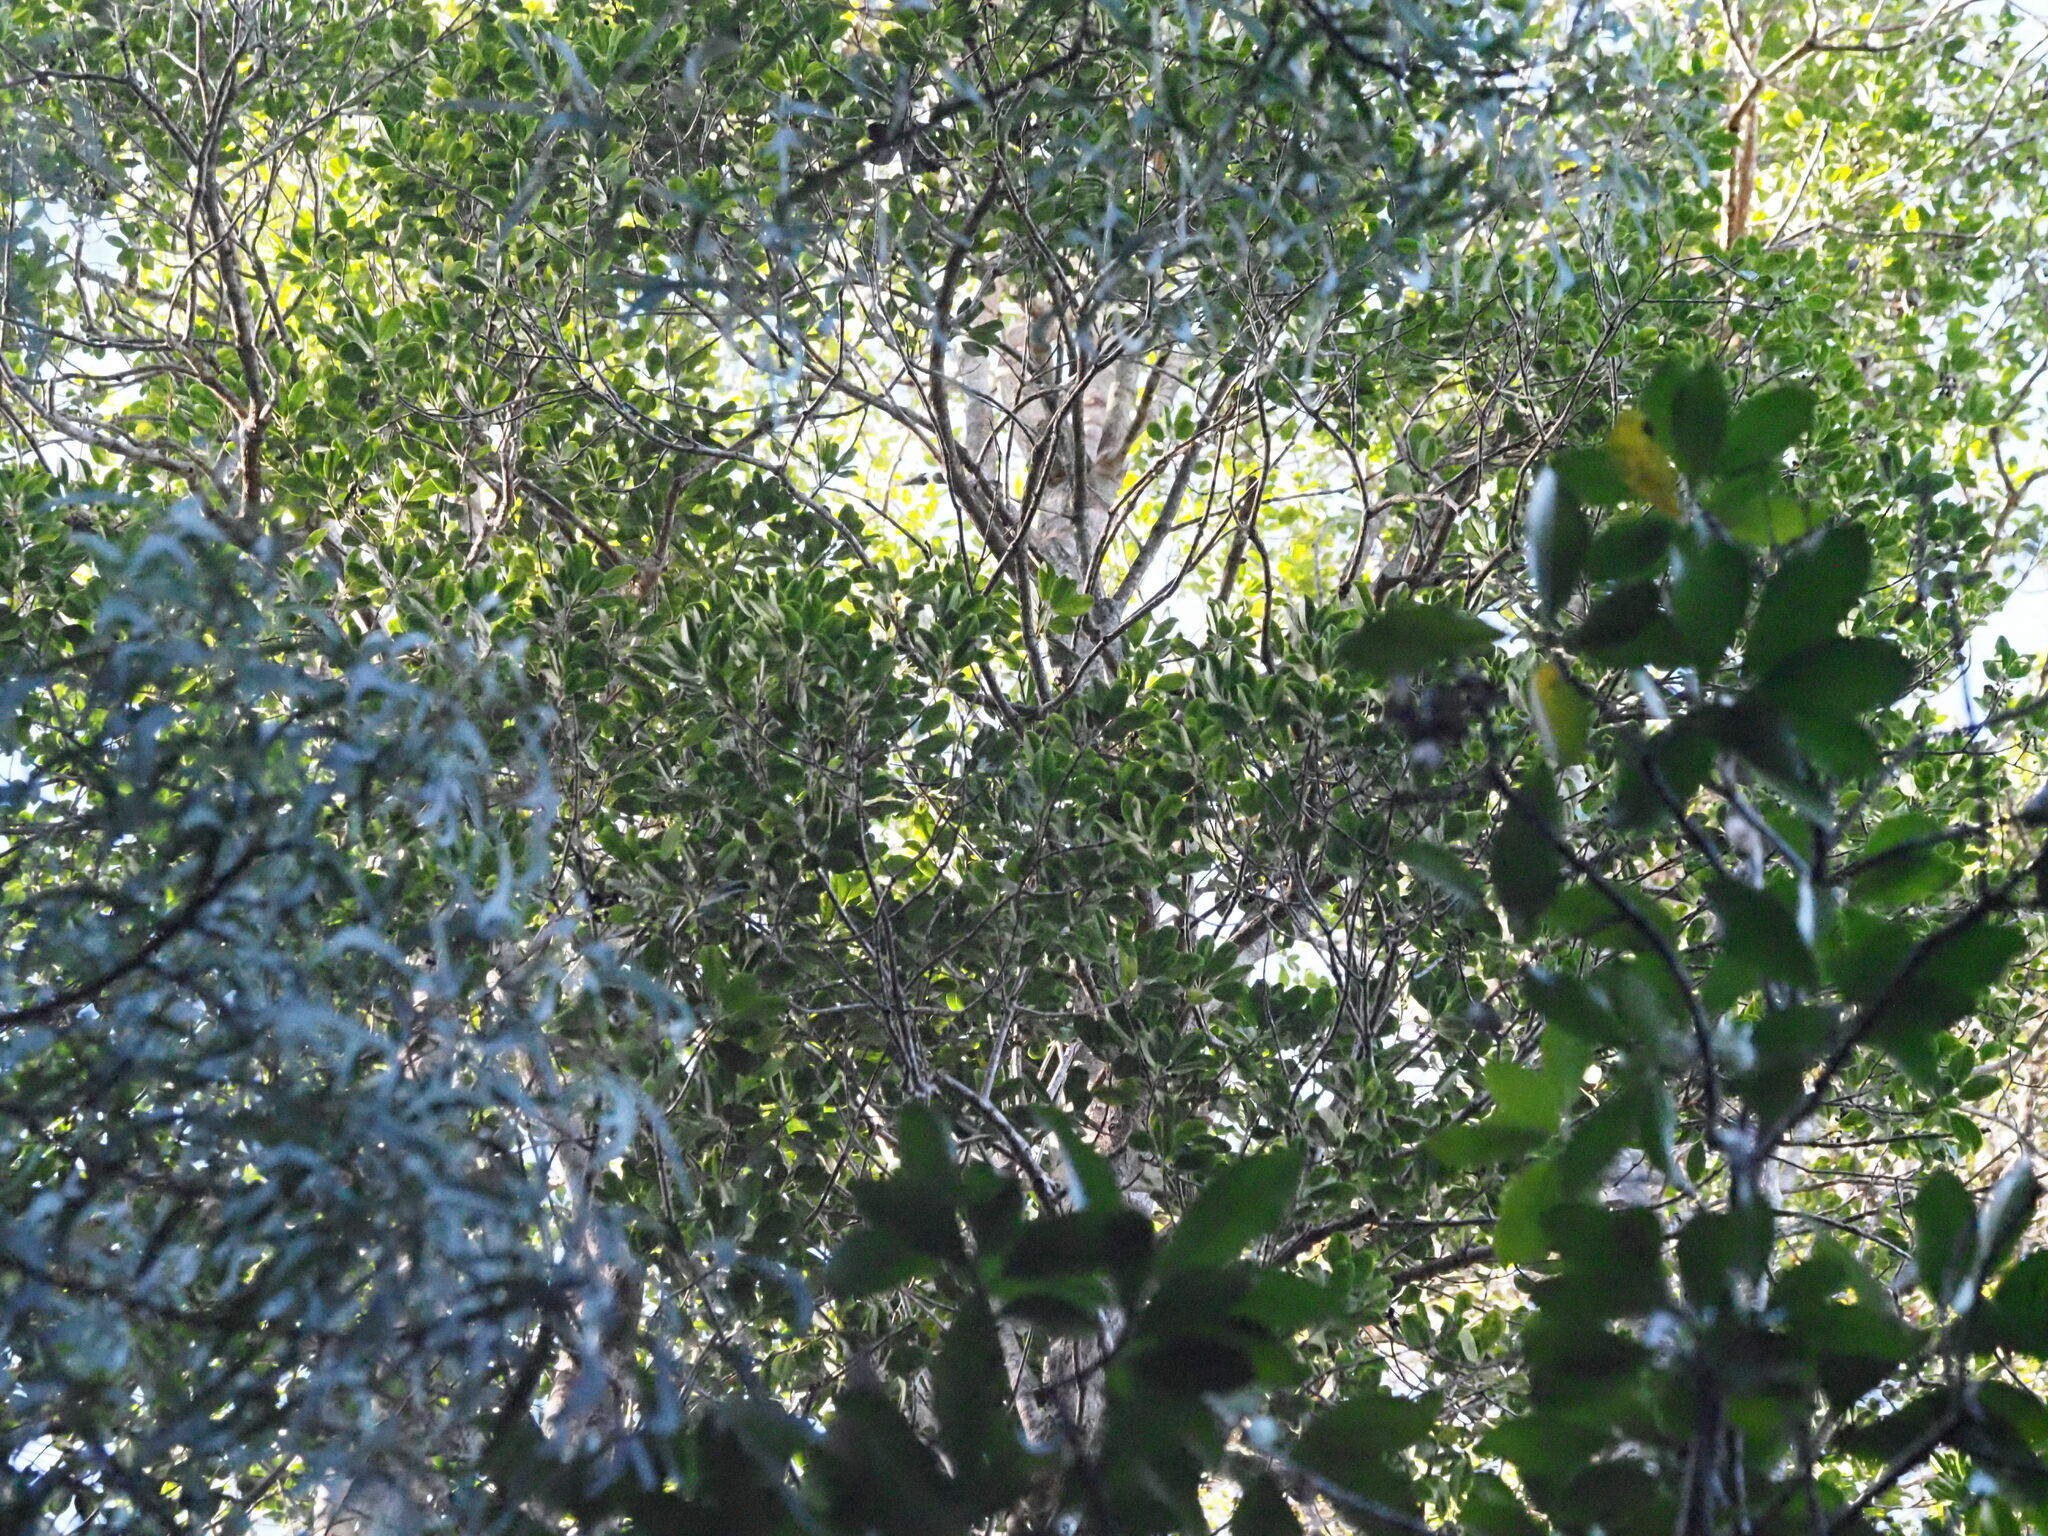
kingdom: Plantae
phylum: Tracheophyta
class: Magnoliopsida
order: Aquifoliales
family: Aquifoliaceae
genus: Ilex
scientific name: Ilex anomala
